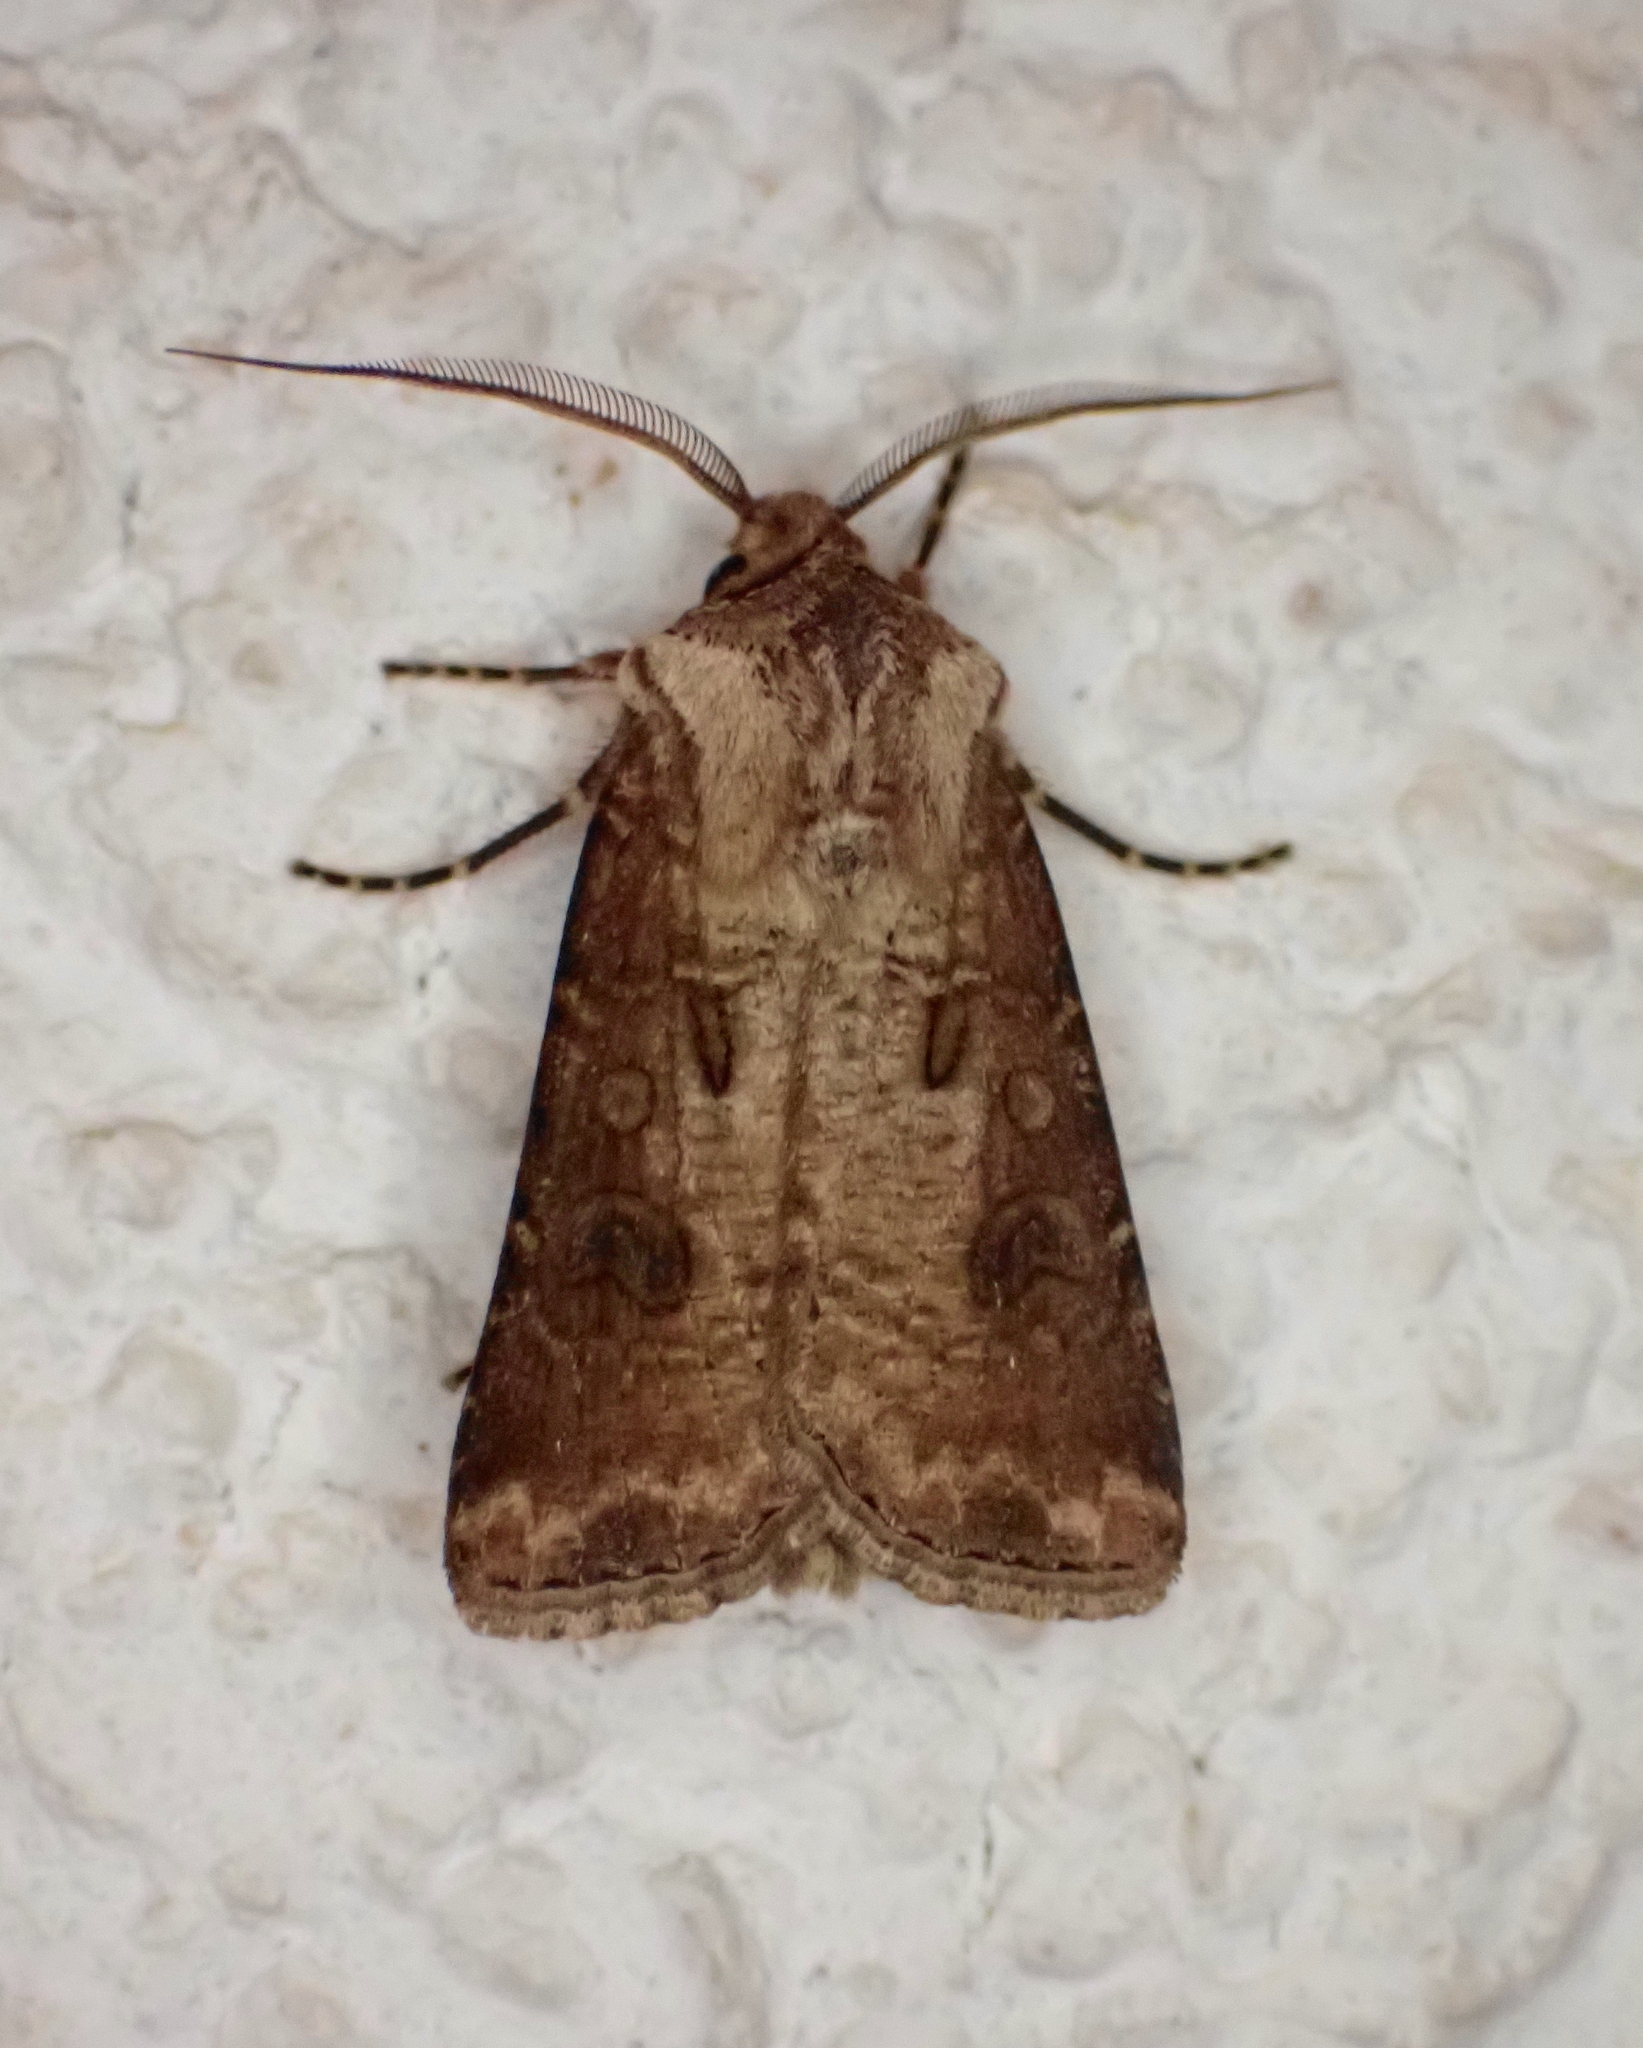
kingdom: Animalia
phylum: Arthropoda
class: Insecta
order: Lepidoptera
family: Noctuidae
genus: Agrotis
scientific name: Agrotis clavis
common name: Heart and club
